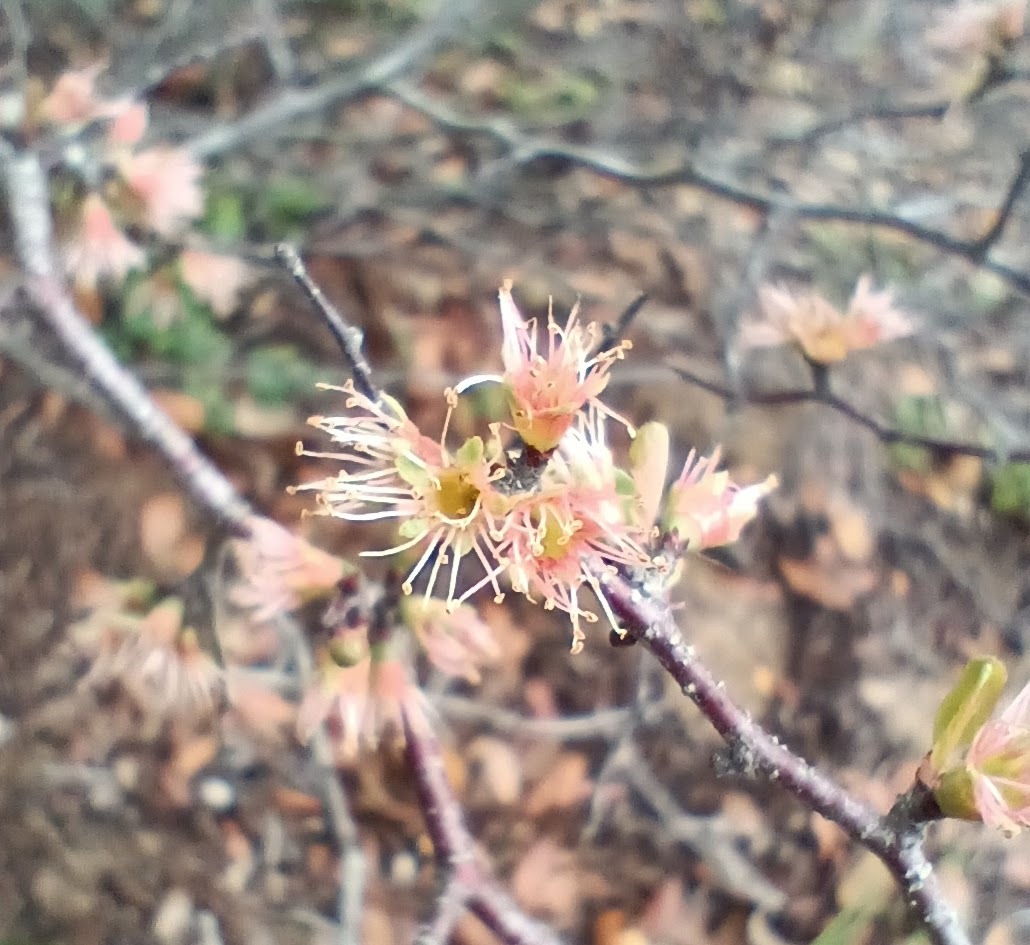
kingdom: Plantae
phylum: Tracheophyta
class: Magnoliopsida
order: Rosales
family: Rosaceae
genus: Prunus
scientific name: Prunus geniculata
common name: Scrub plum
